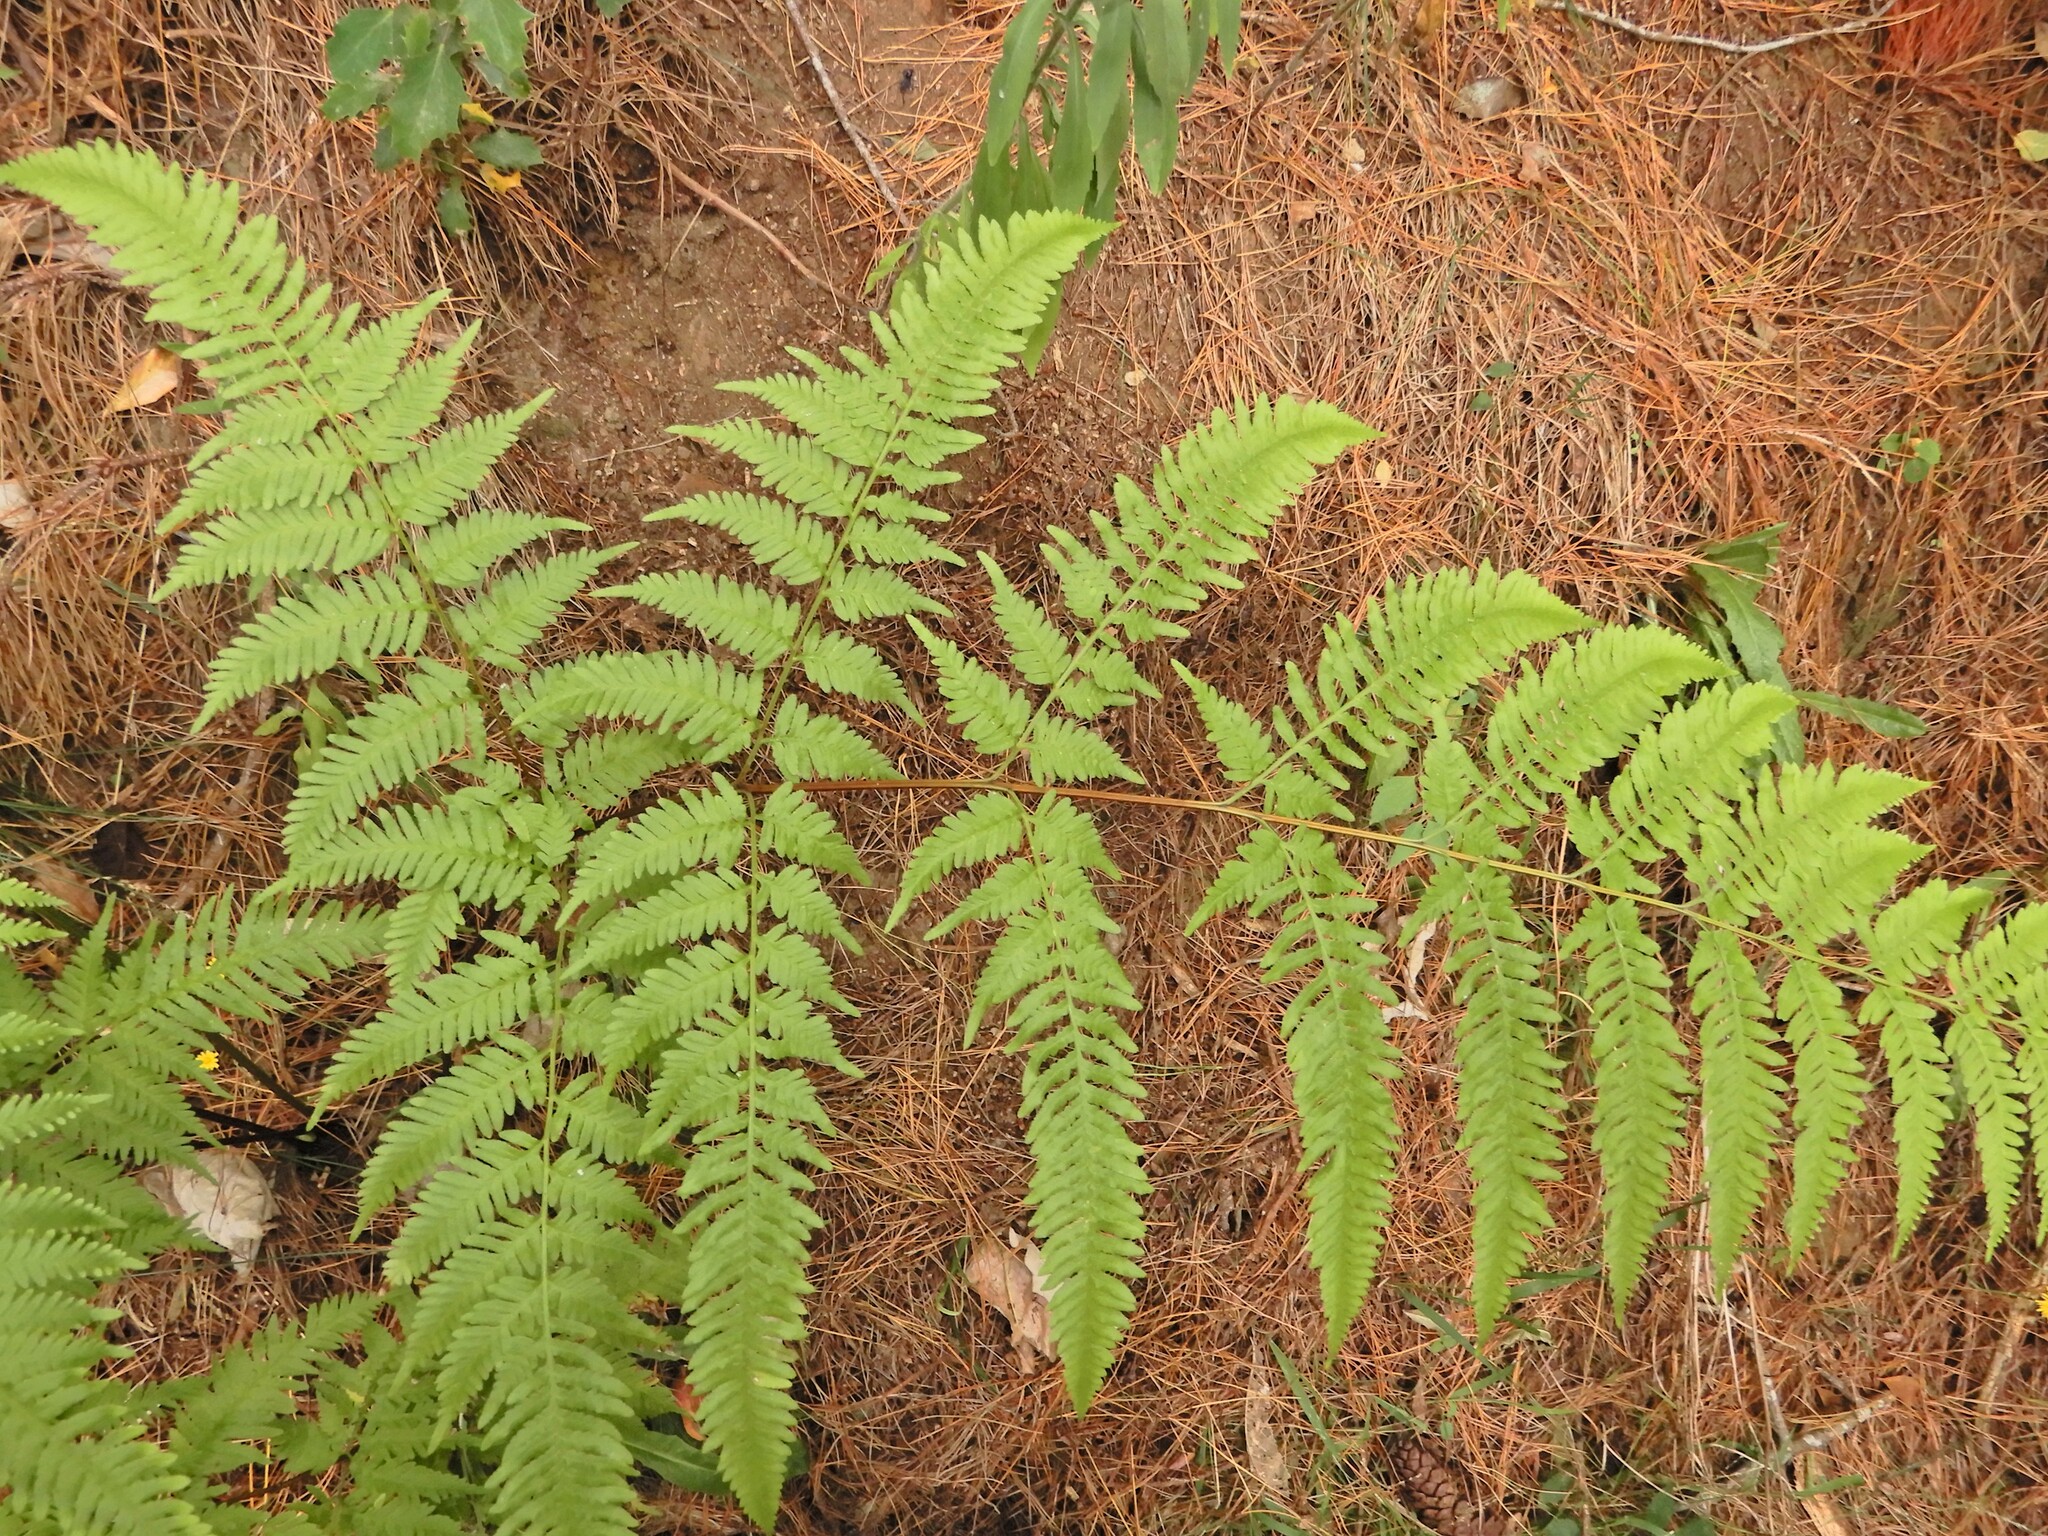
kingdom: Plantae
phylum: Tracheophyta
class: Polypodiopsida
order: Polypodiales
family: Pteridaceae
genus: Pteris
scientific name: Pteris tremula
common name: Australian brake
